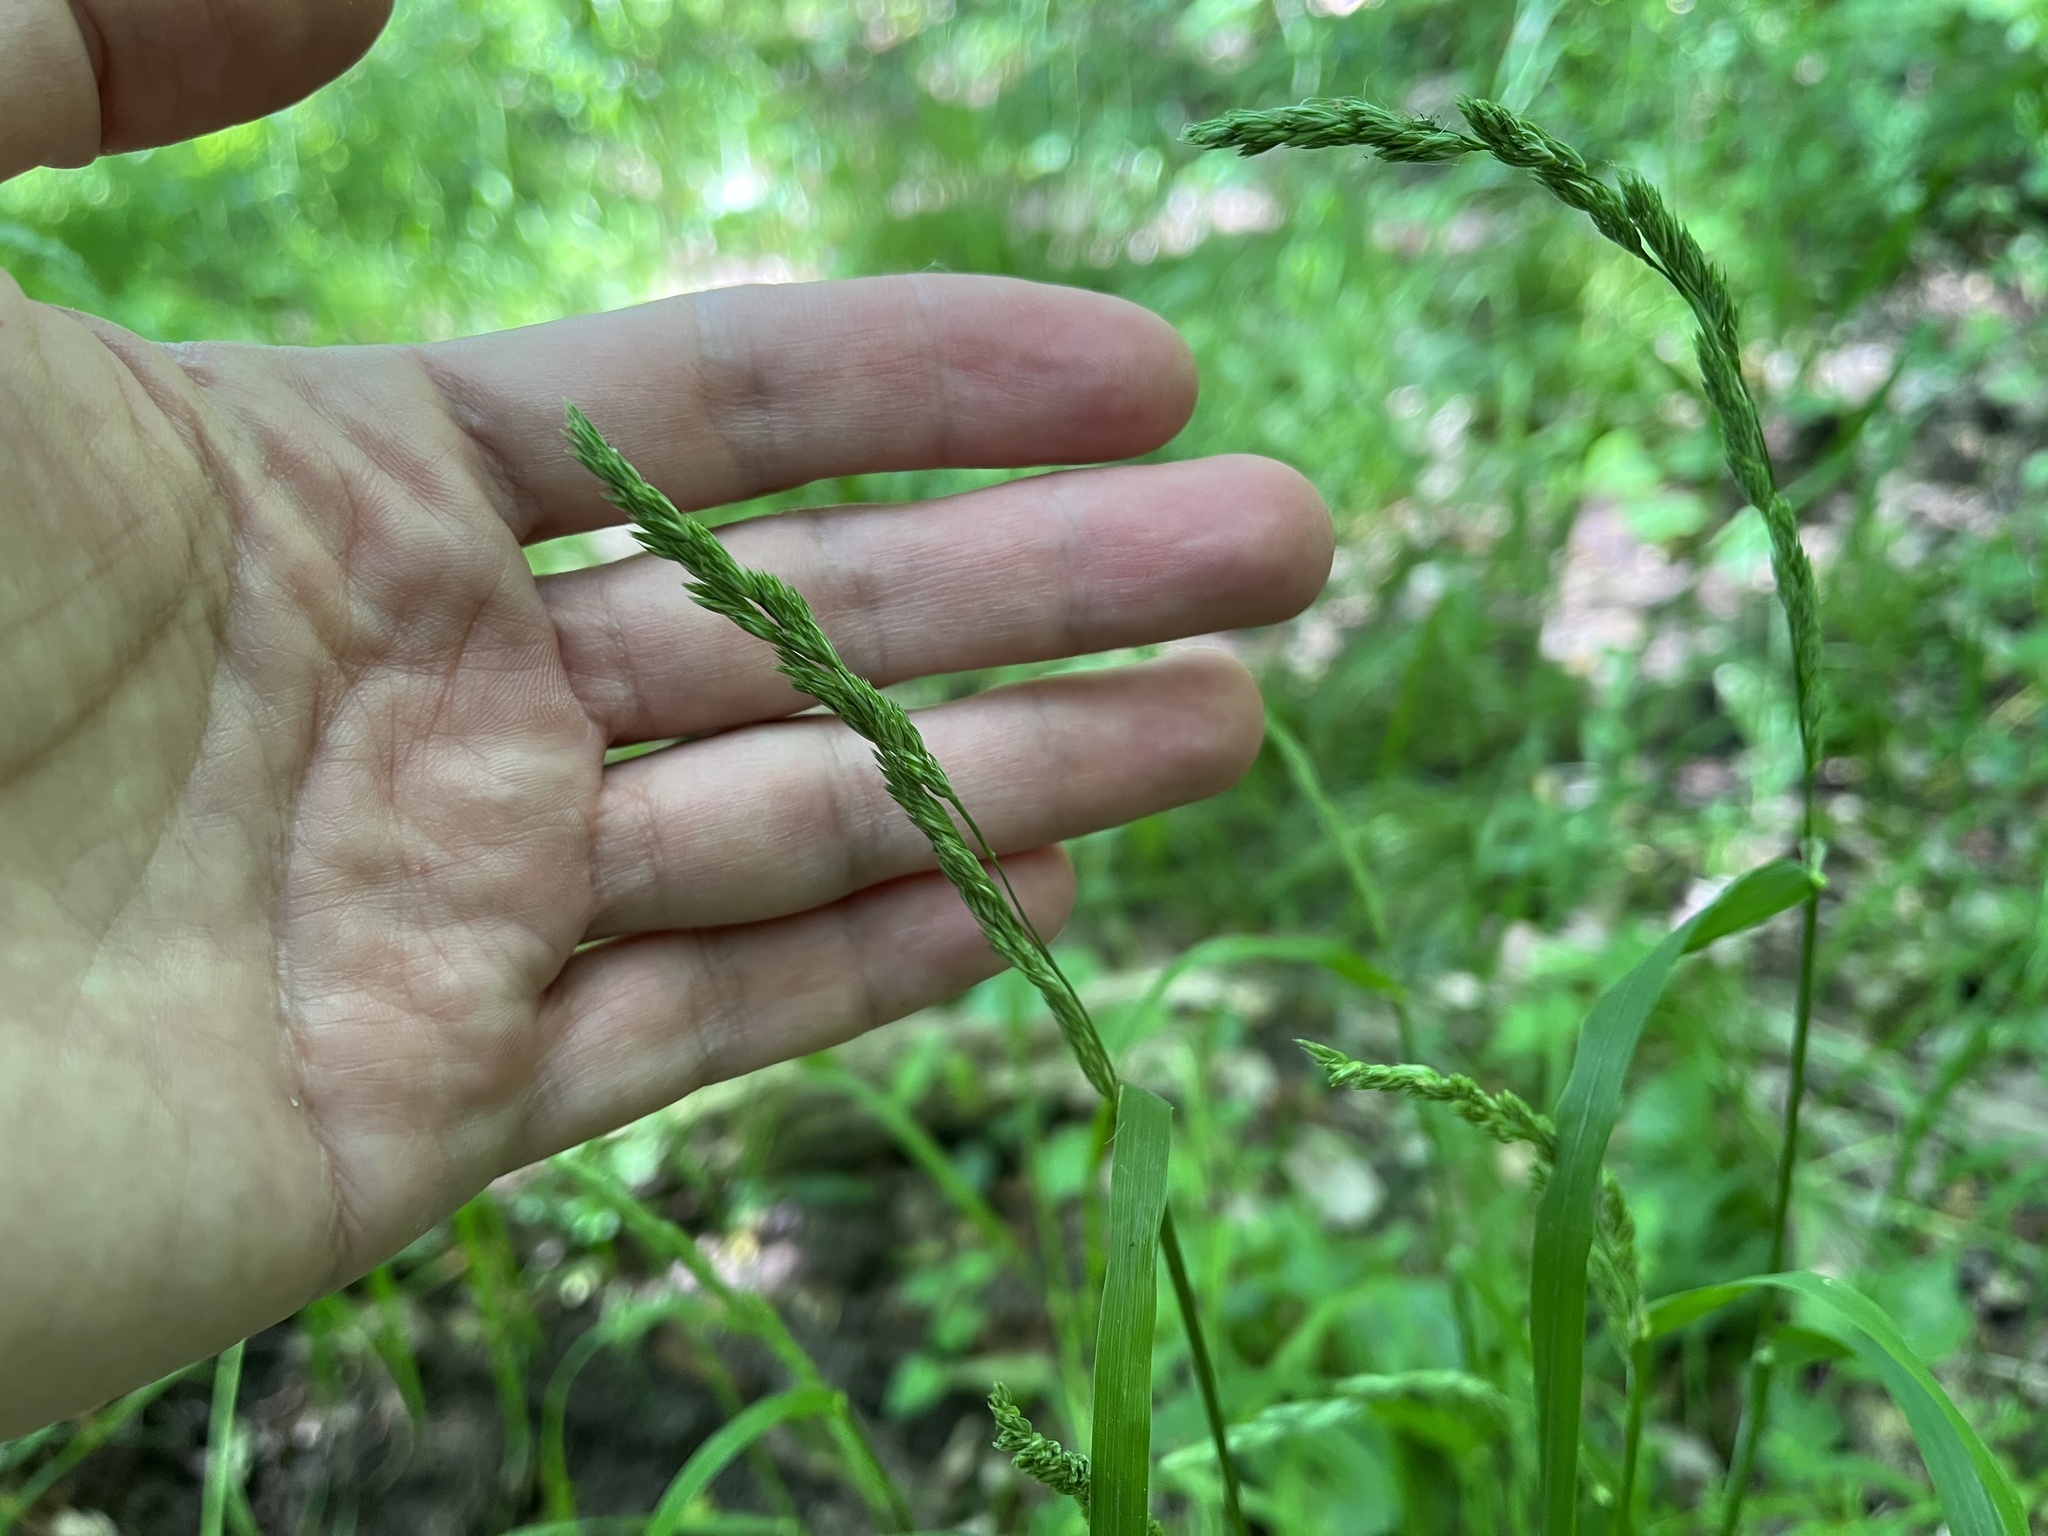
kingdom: Plantae
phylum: Tracheophyta
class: Liliopsida
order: Poales
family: Poaceae
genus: Dactylis
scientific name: Dactylis glomerata
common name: Orchardgrass
